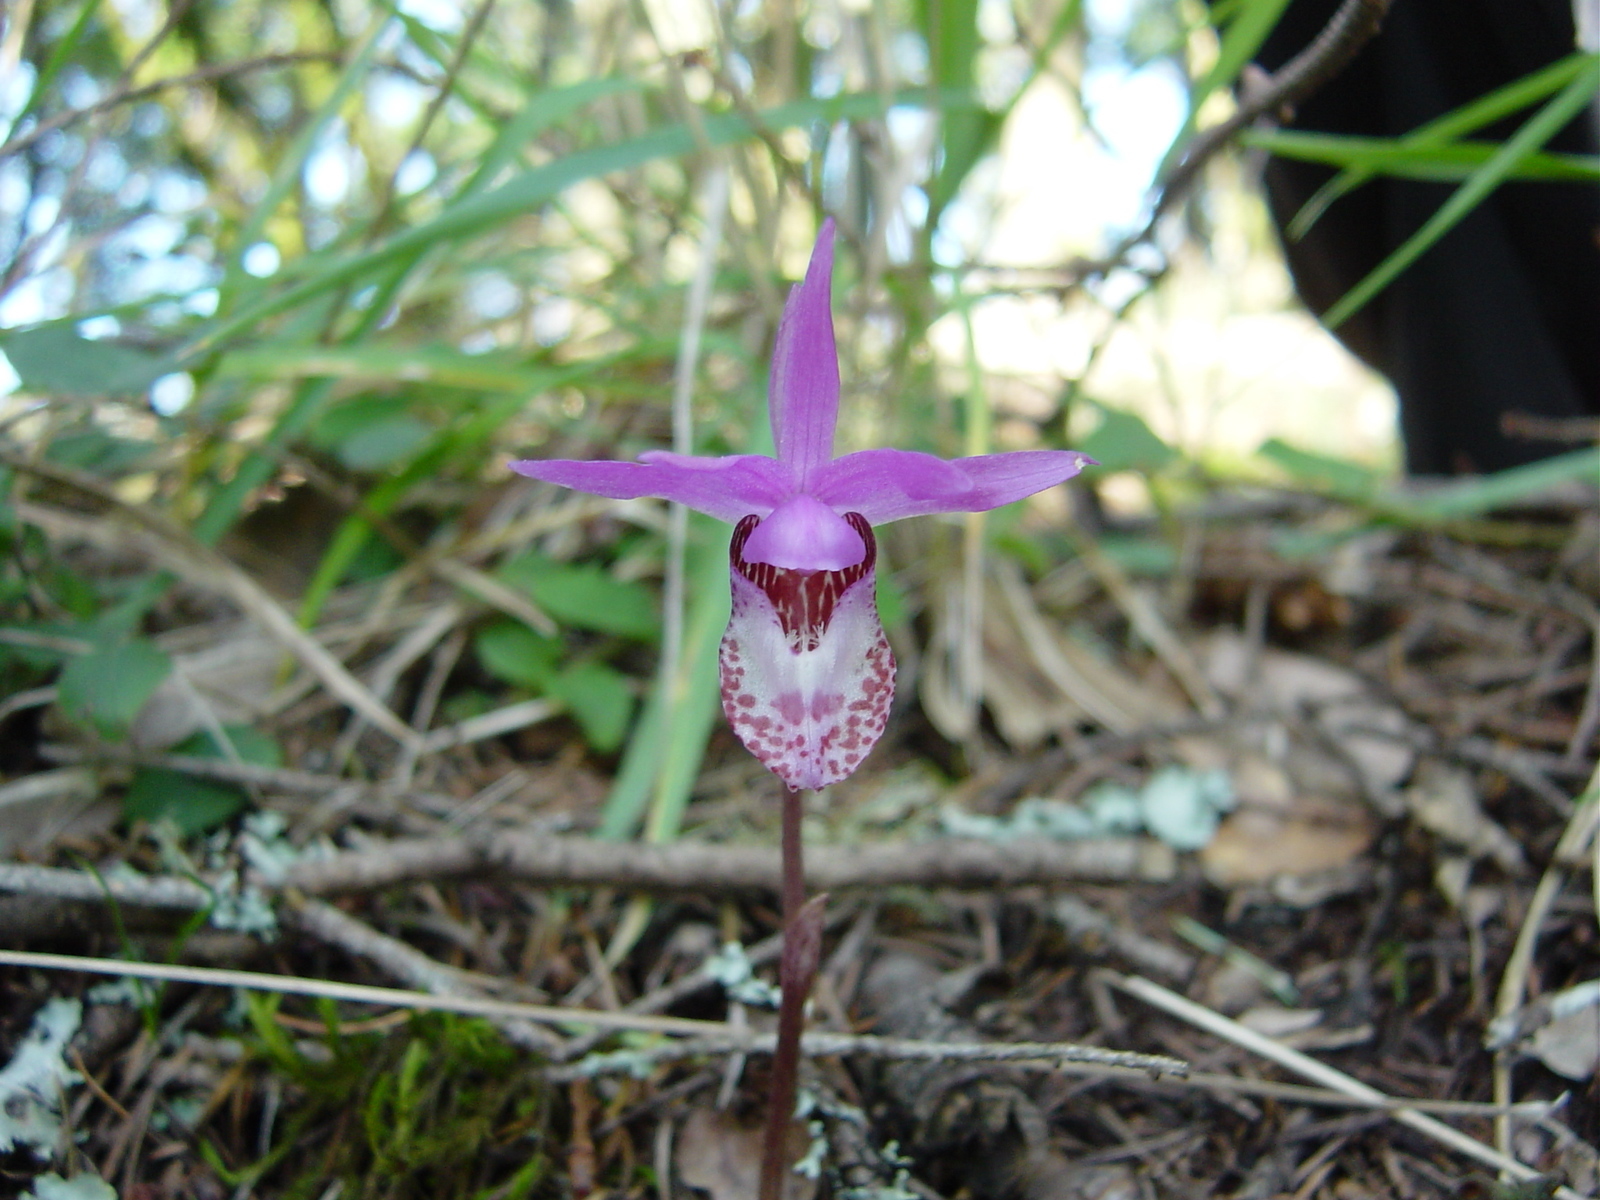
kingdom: Plantae
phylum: Tracheophyta
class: Liliopsida
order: Asparagales
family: Orchidaceae
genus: Calypso
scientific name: Calypso bulbosa
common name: Calypso
